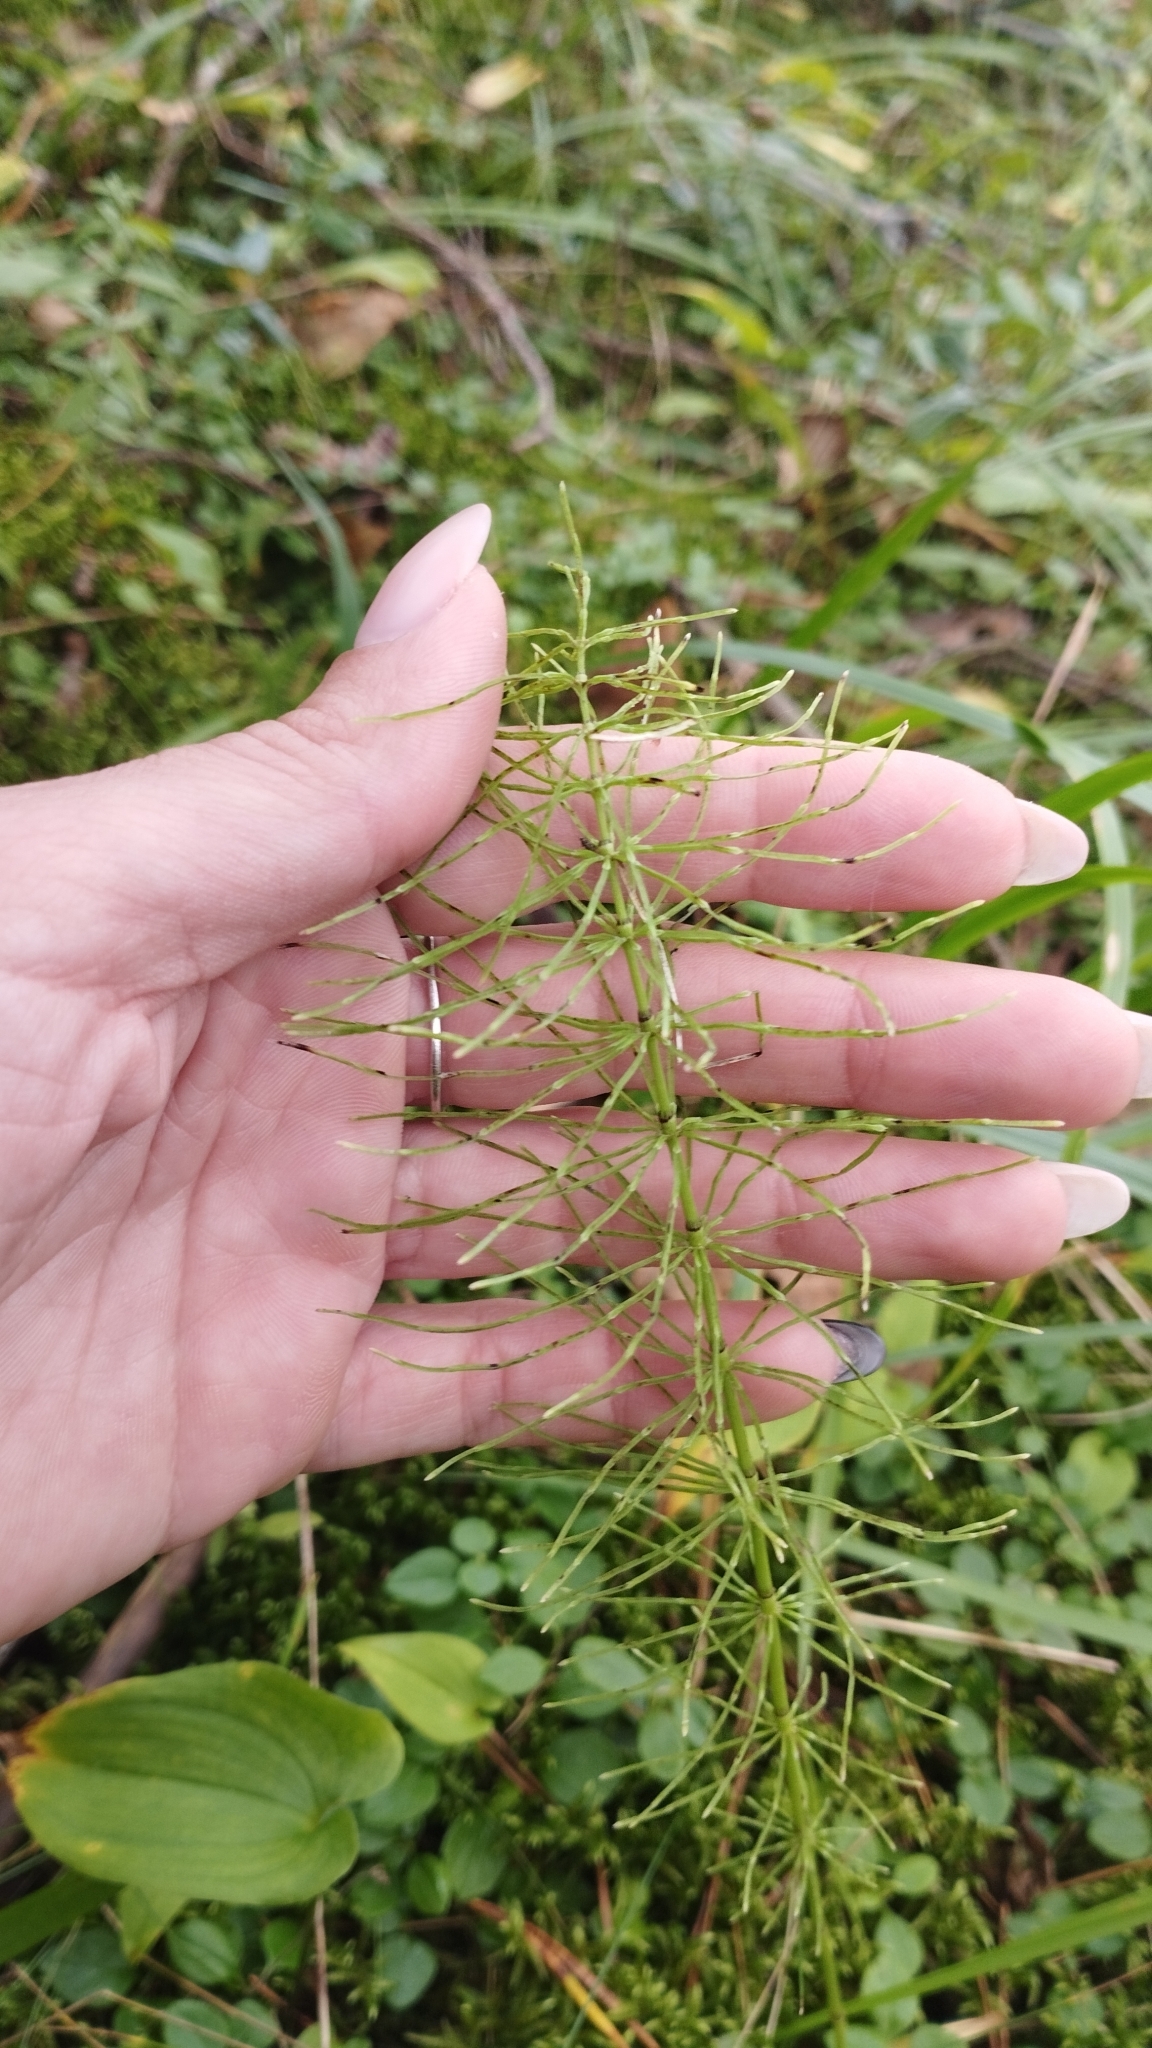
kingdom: Plantae
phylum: Tracheophyta
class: Polypodiopsida
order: Equisetales
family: Equisetaceae
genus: Equisetum
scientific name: Equisetum pratense
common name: Meadow horsetail
